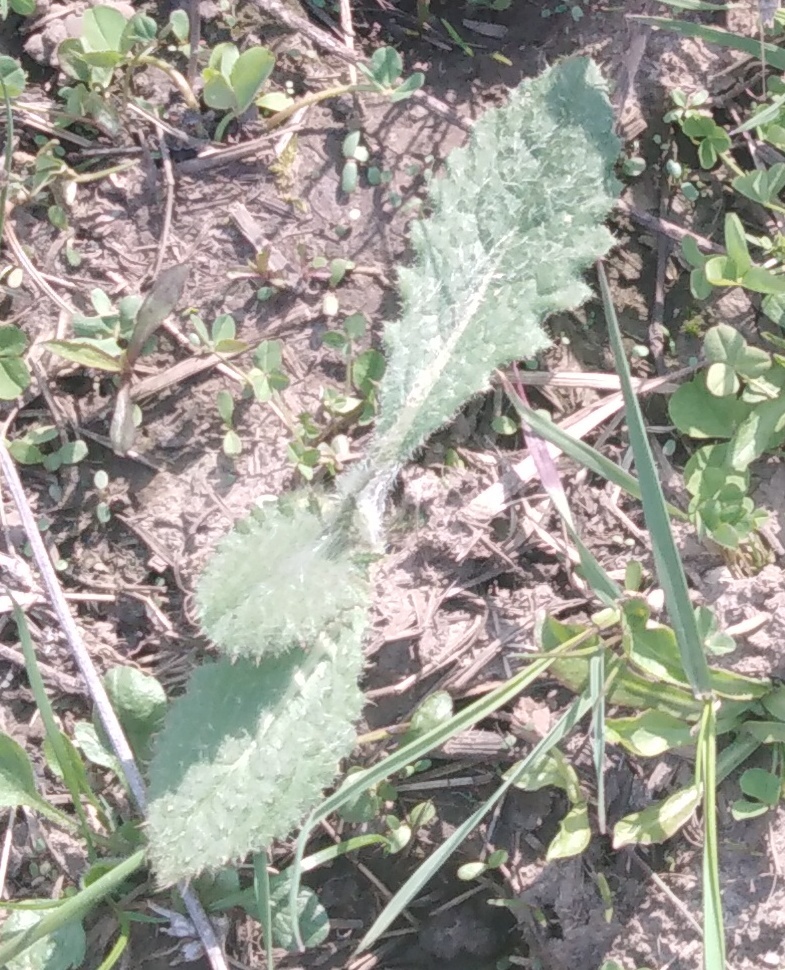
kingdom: Plantae
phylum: Tracheophyta
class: Magnoliopsida
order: Asterales
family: Asteraceae
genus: Cirsium
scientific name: Cirsium vulgare
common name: Bull thistle
